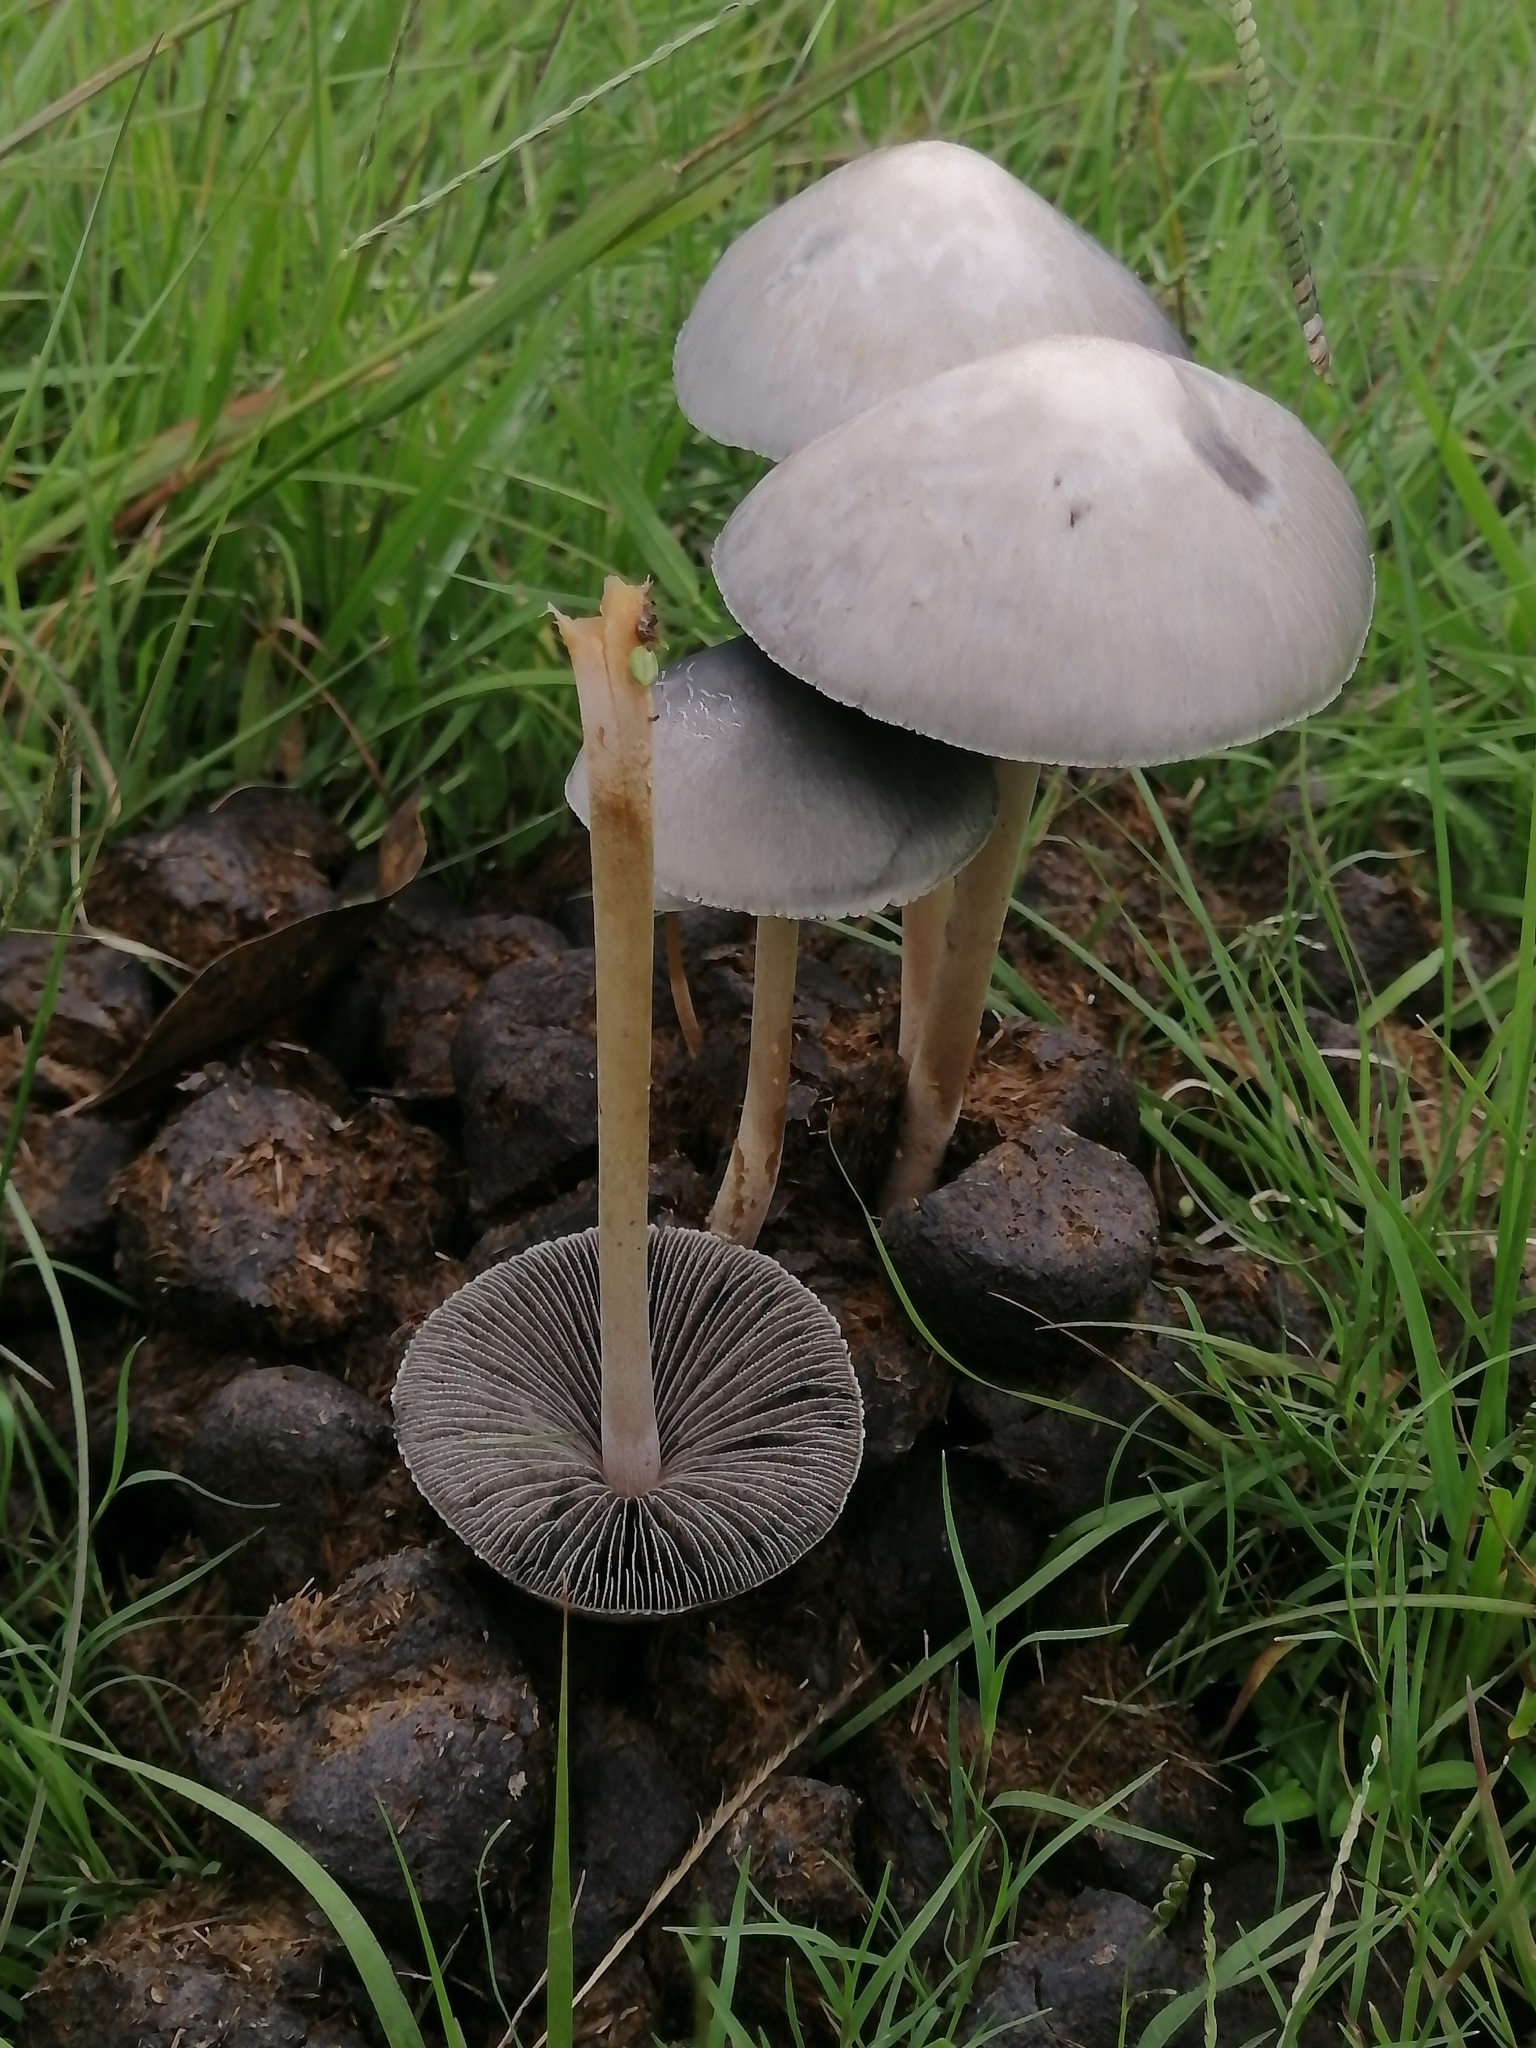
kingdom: Fungi
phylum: Basidiomycota
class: Agaricomycetes
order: Agaricales
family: Bolbitiaceae
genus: Panaeolus
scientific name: Panaeolus antillarum
